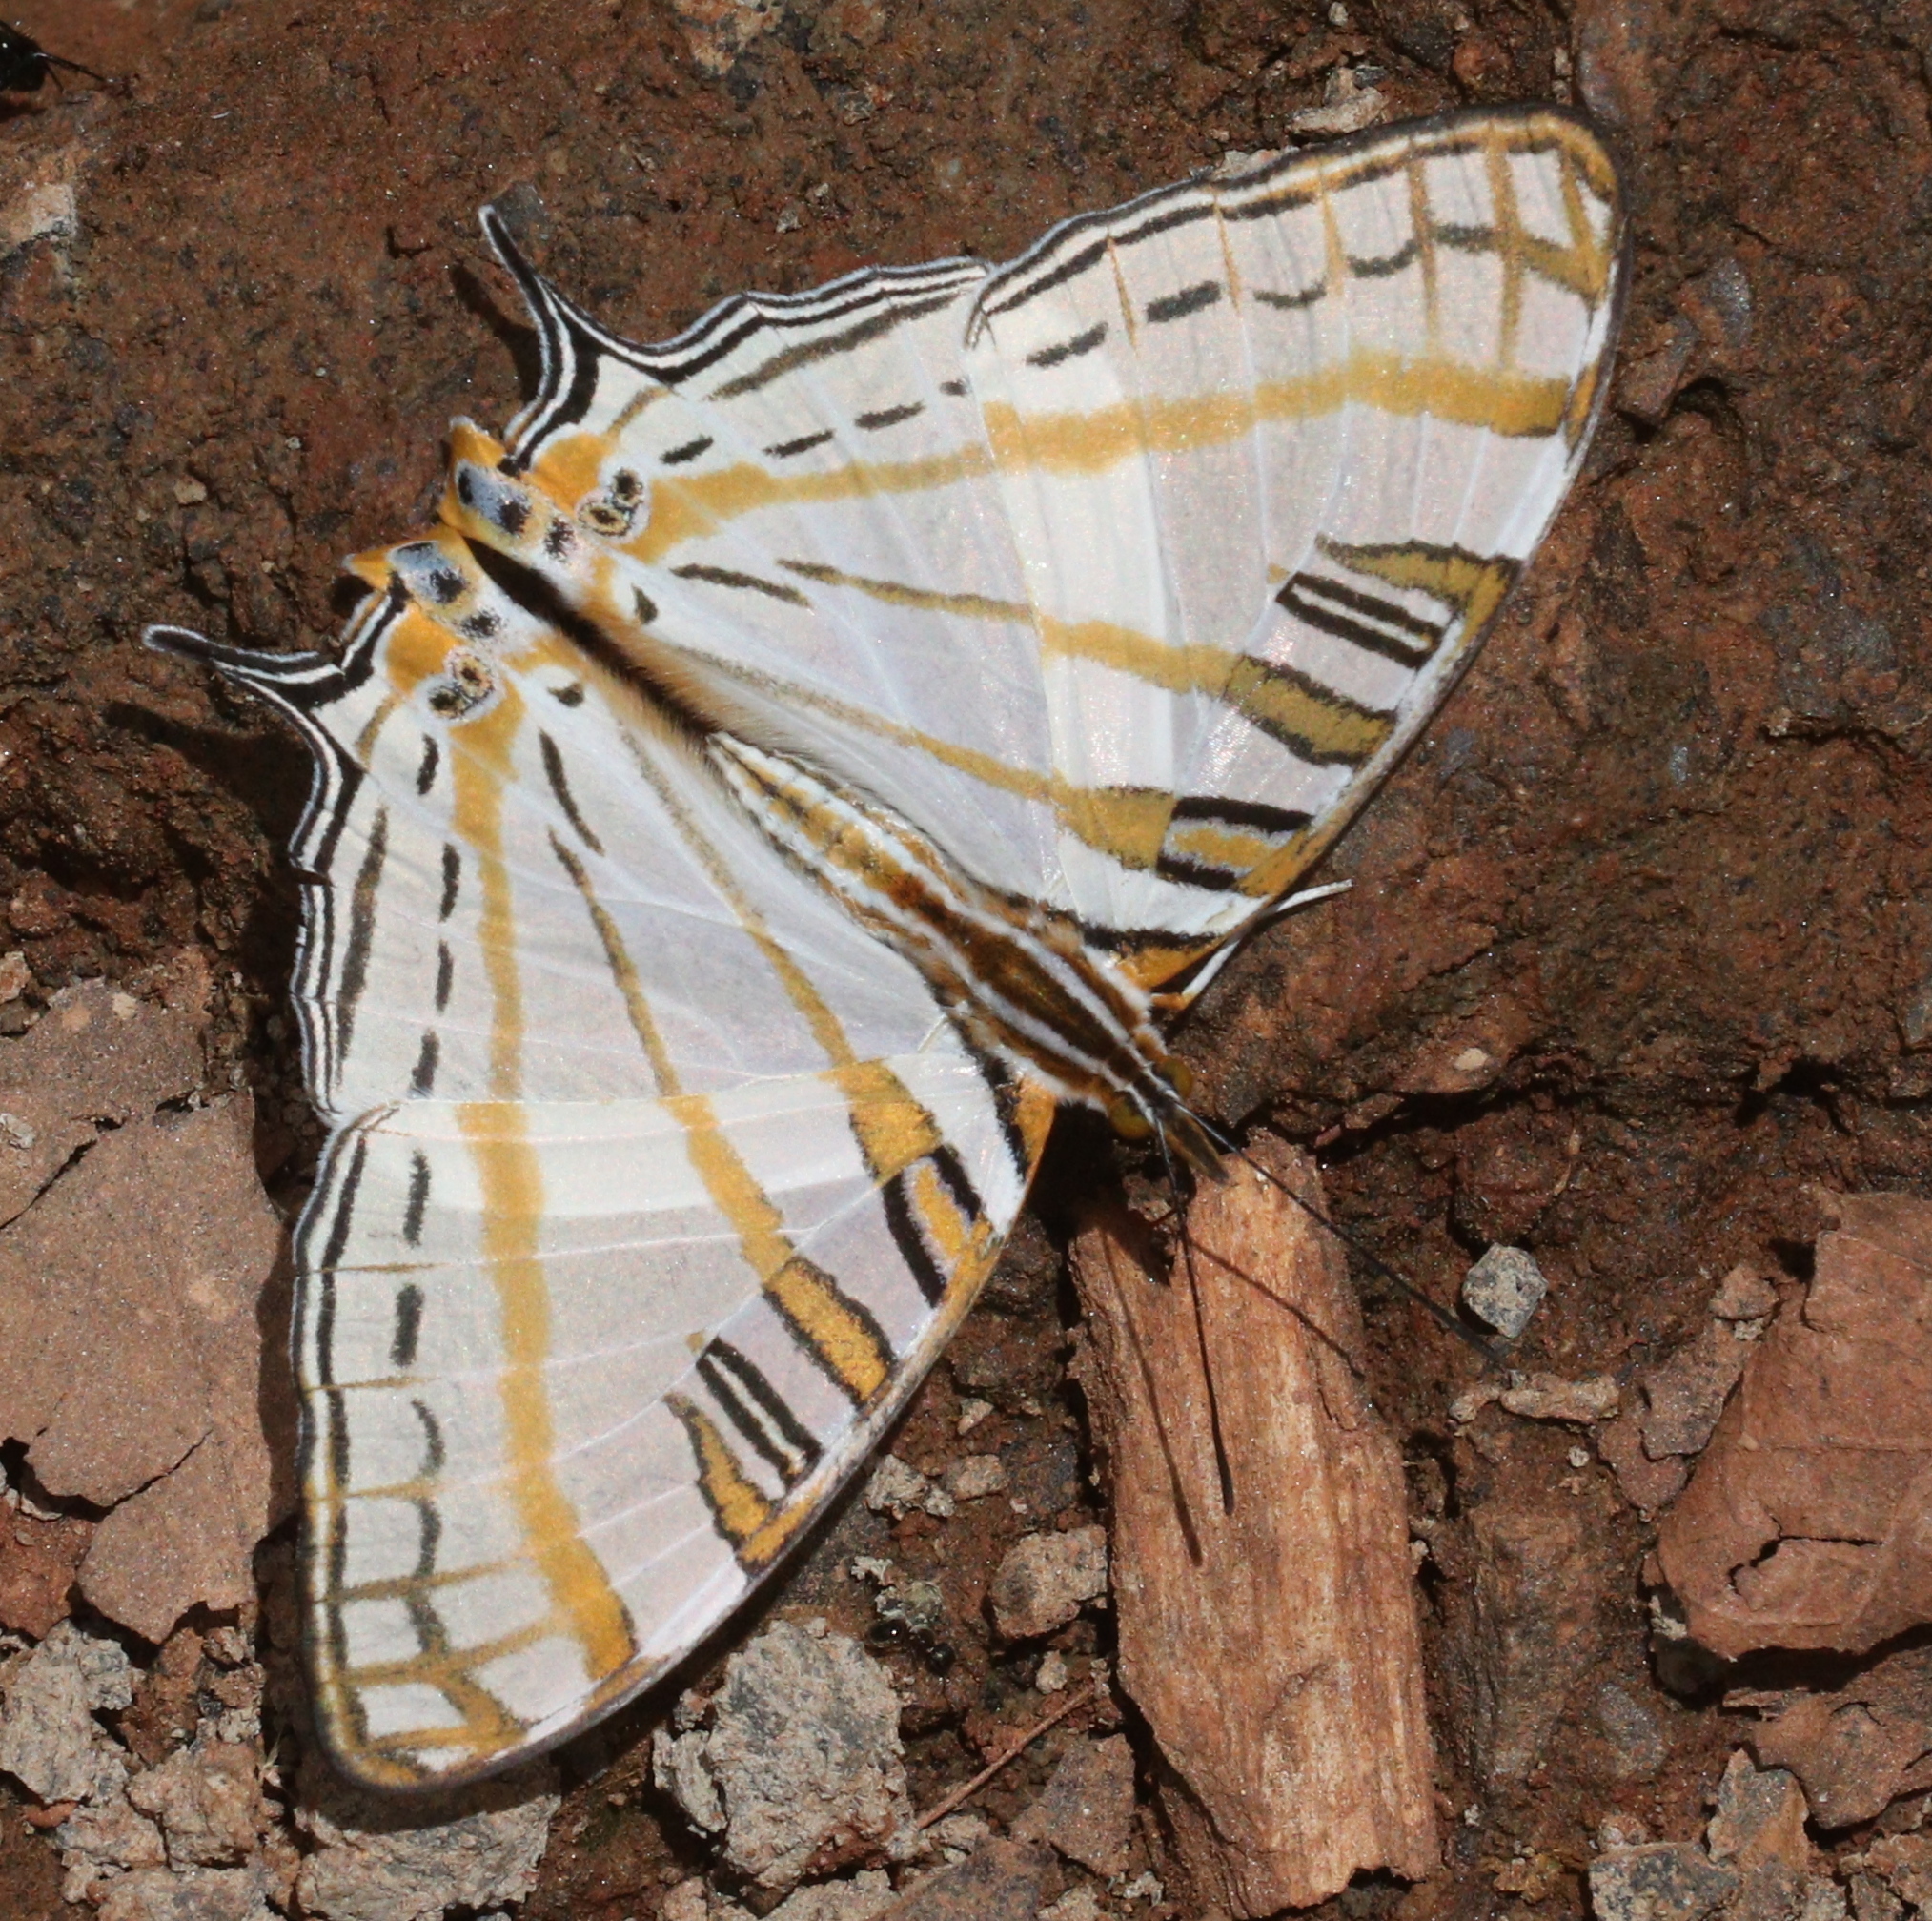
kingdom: Animalia
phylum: Arthropoda
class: Insecta
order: Lepidoptera
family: Nymphalidae
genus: Marpesia
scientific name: Marpesia camillus
